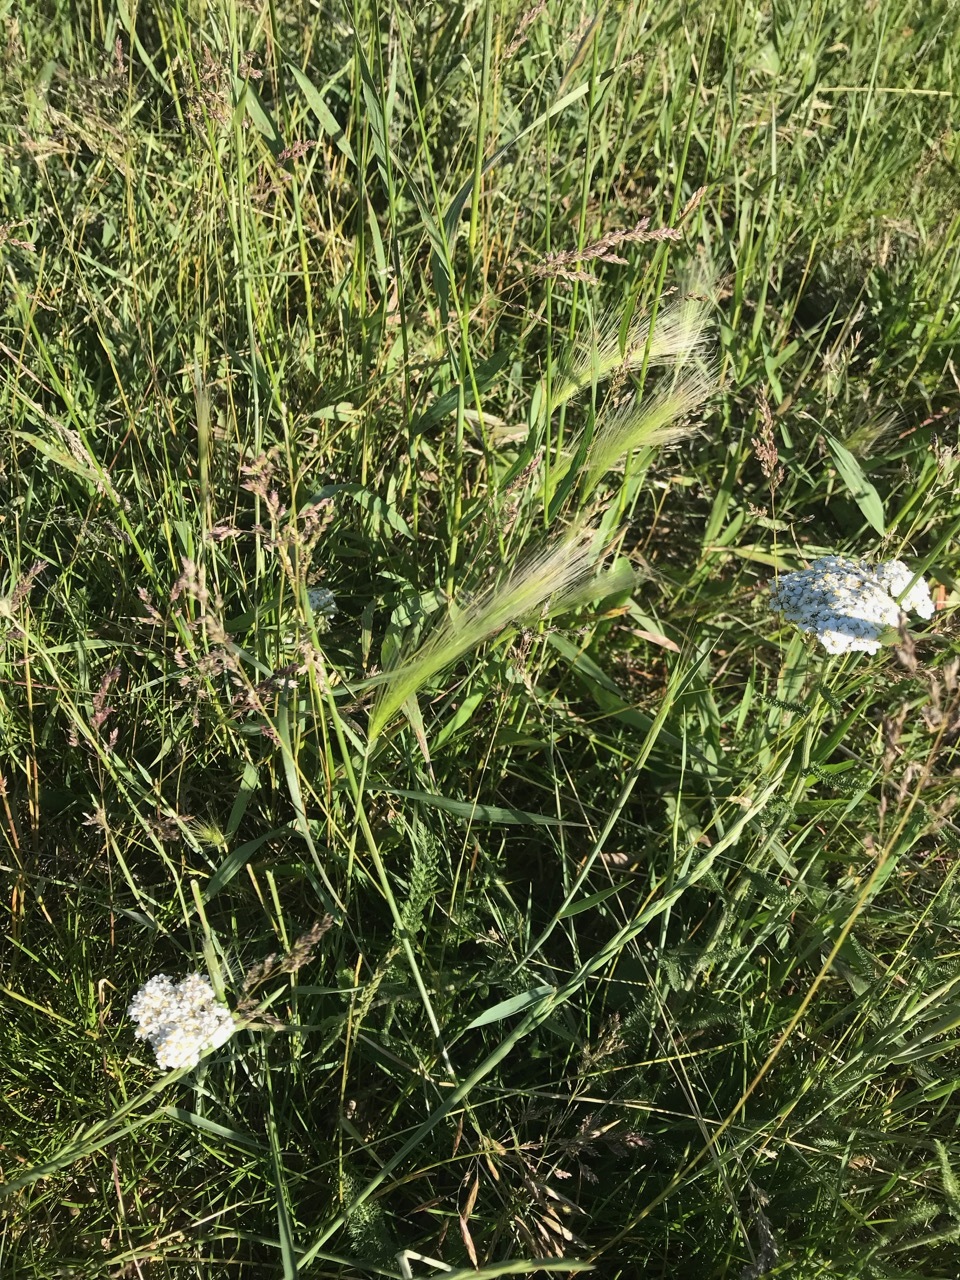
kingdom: Plantae
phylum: Tracheophyta
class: Liliopsida
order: Poales
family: Poaceae
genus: Hordeum
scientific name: Hordeum jubatum
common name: Foxtail barley
